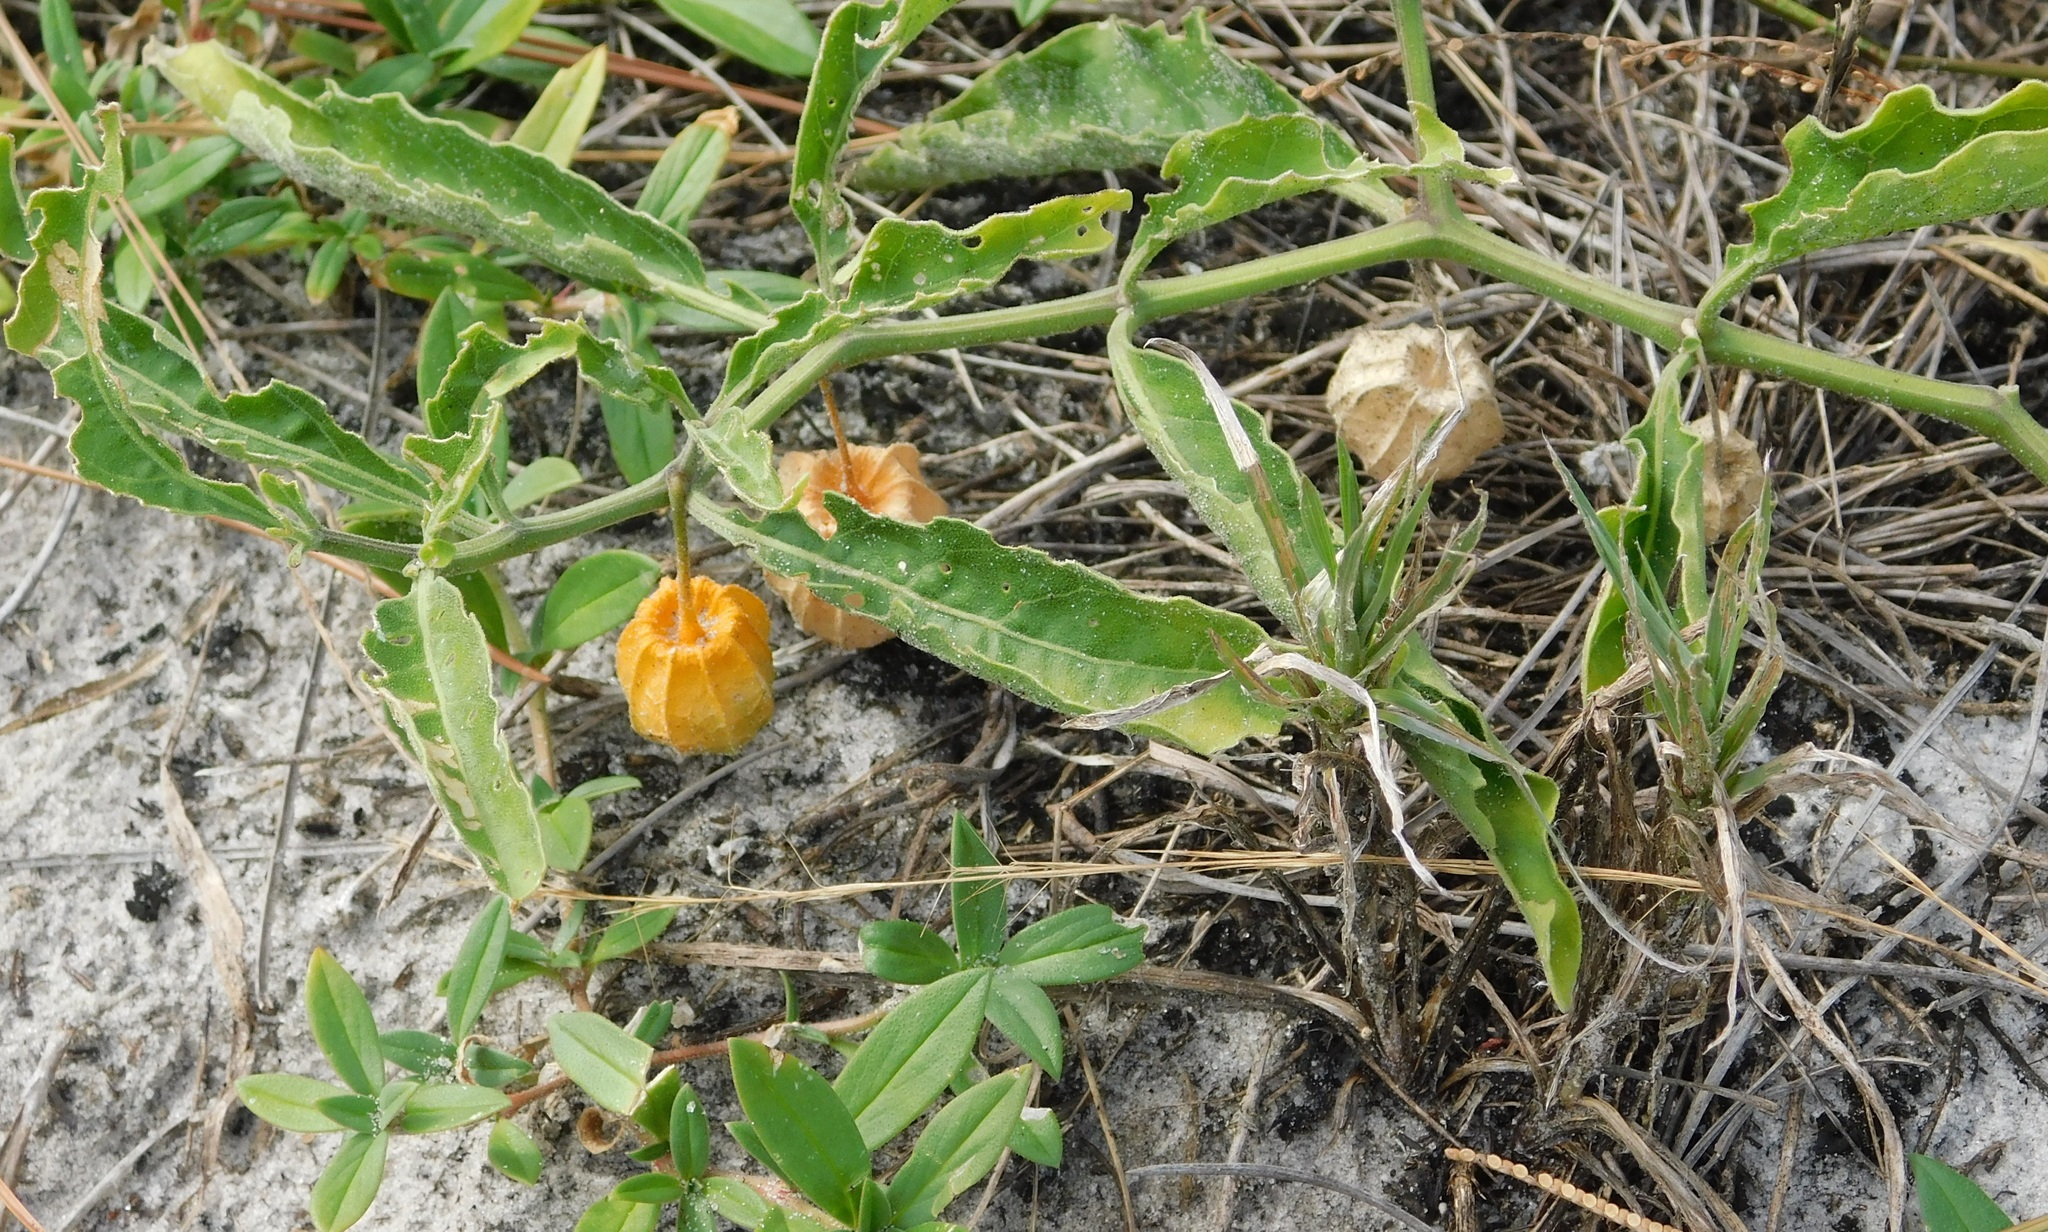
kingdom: Plantae
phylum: Tracheophyta
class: Magnoliopsida
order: Solanales
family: Solanaceae
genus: Physalis
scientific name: Physalis walteri
